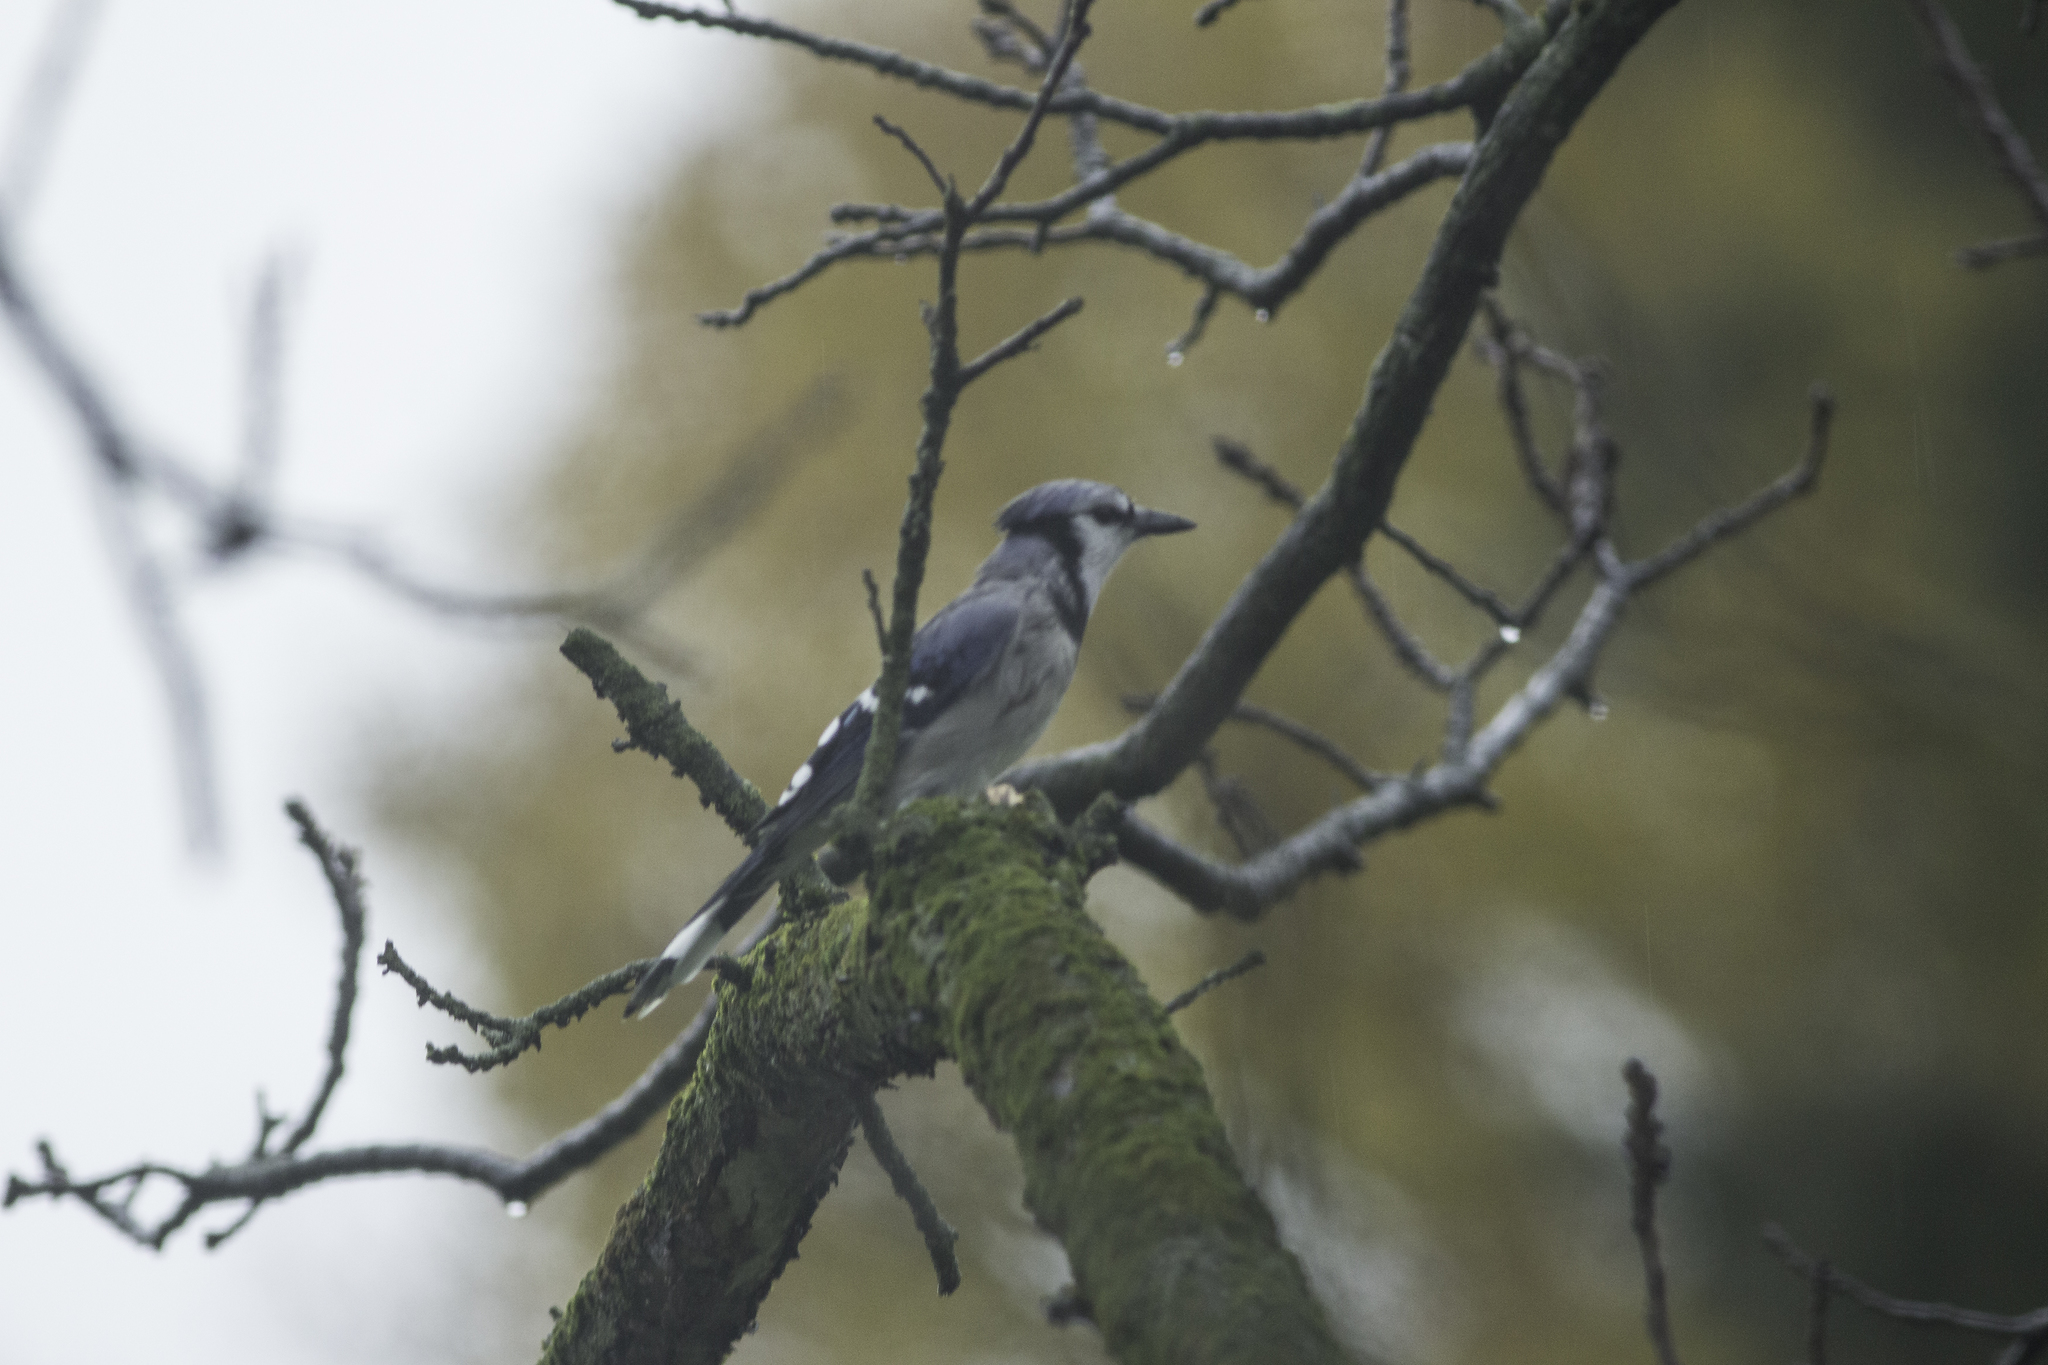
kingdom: Animalia
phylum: Chordata
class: Aves
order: Passeriformes
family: Corvidae
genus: Cyanocitta
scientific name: Cyanocitta cristata
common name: Blue jay
